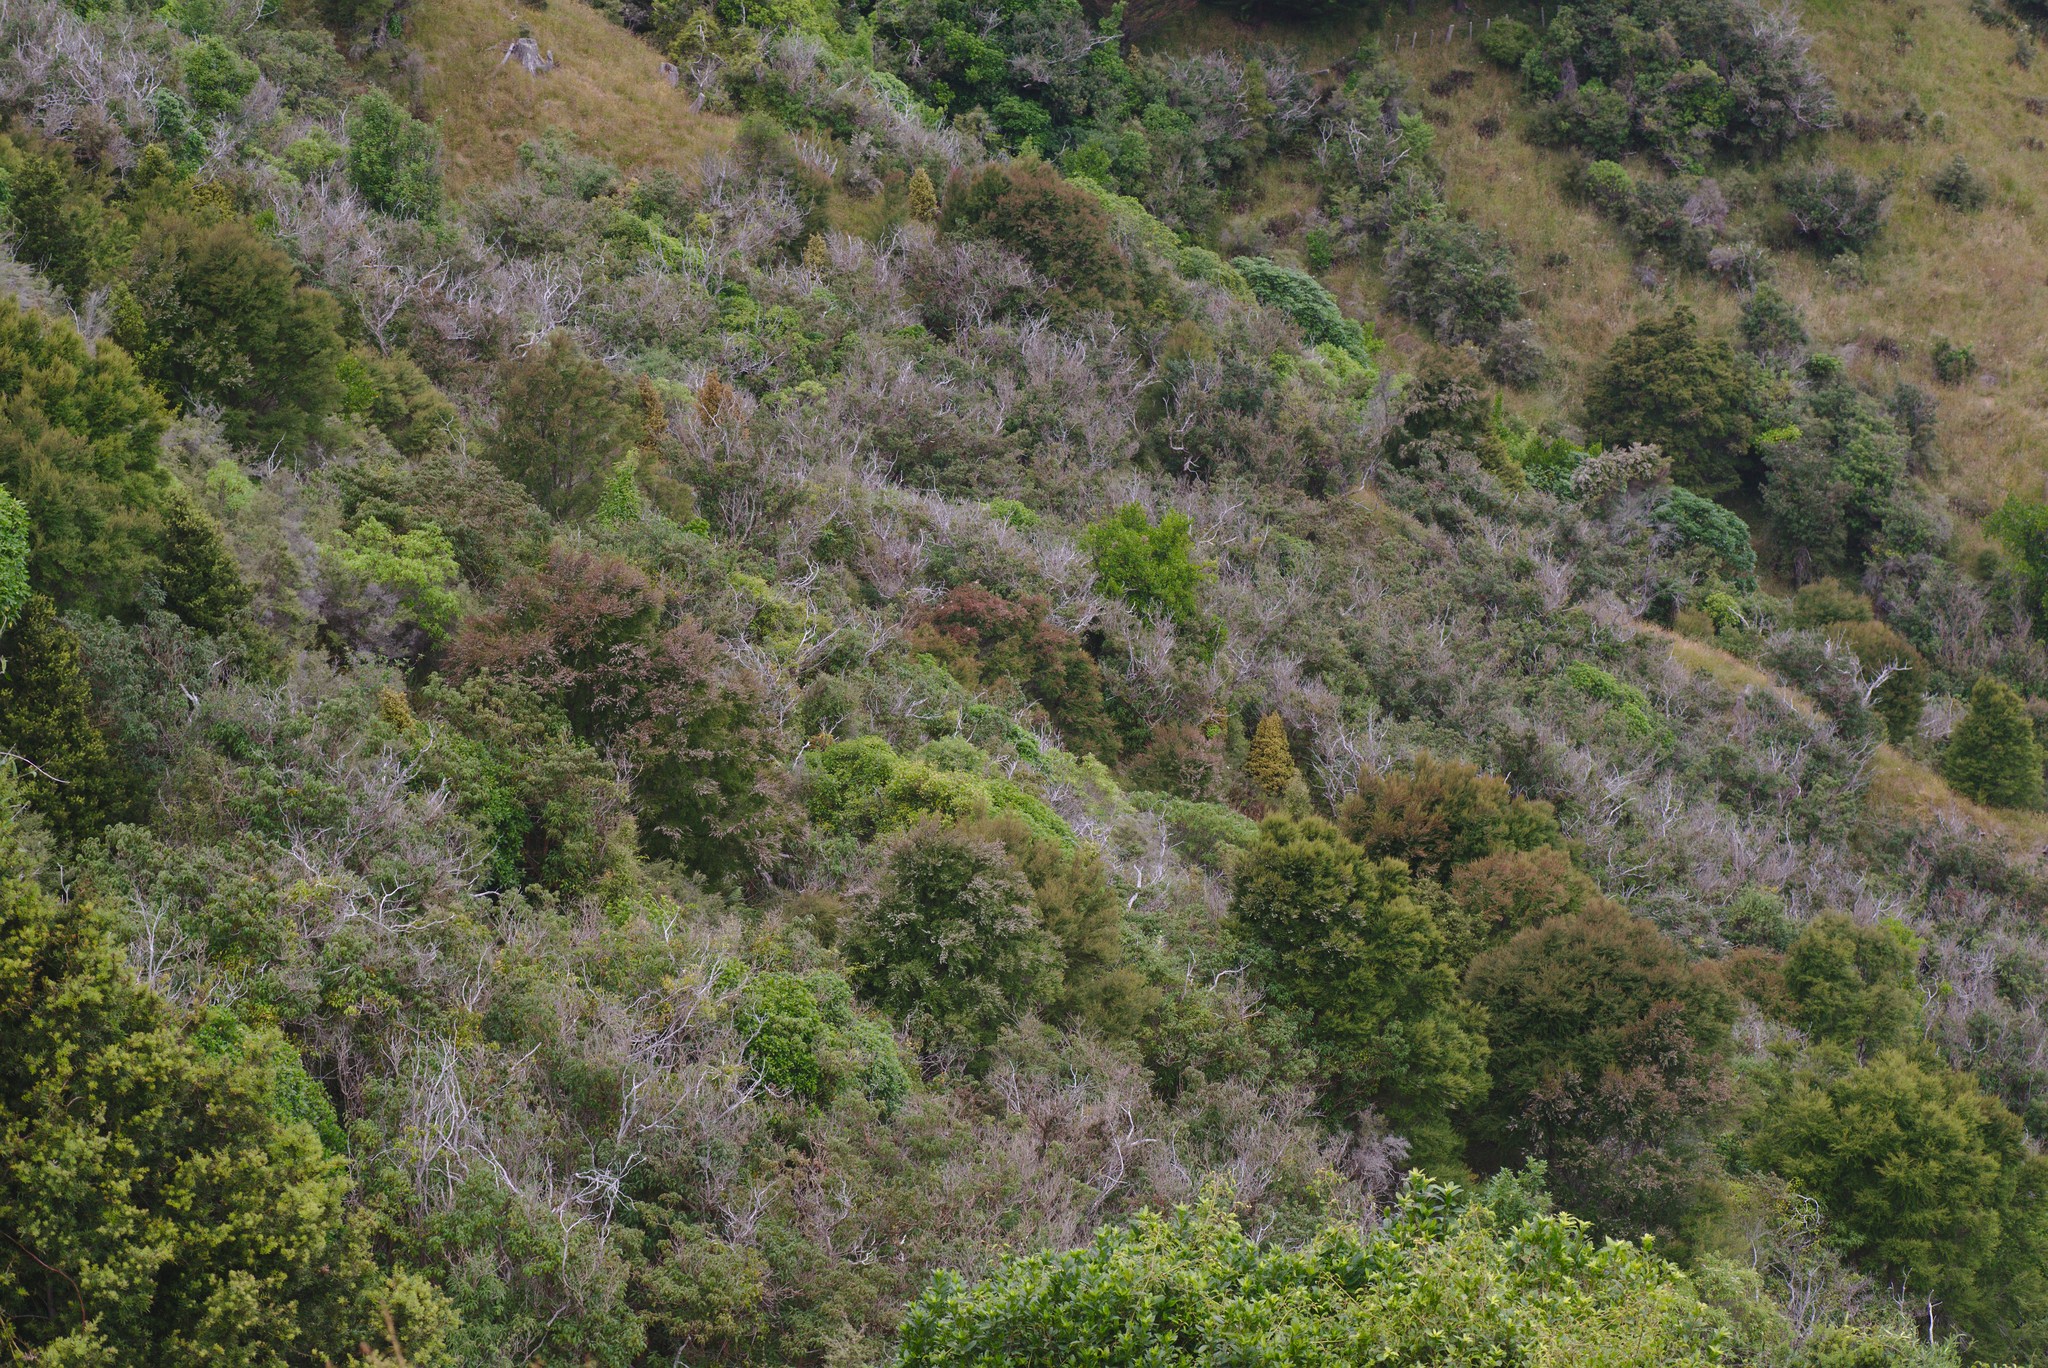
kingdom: Plantae
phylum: Tracheophyta
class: Magnoliopsida
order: Myrtales
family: Onagraceae
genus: Fuchsia
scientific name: Fuchsia excorticata
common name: Tree fuchsia
